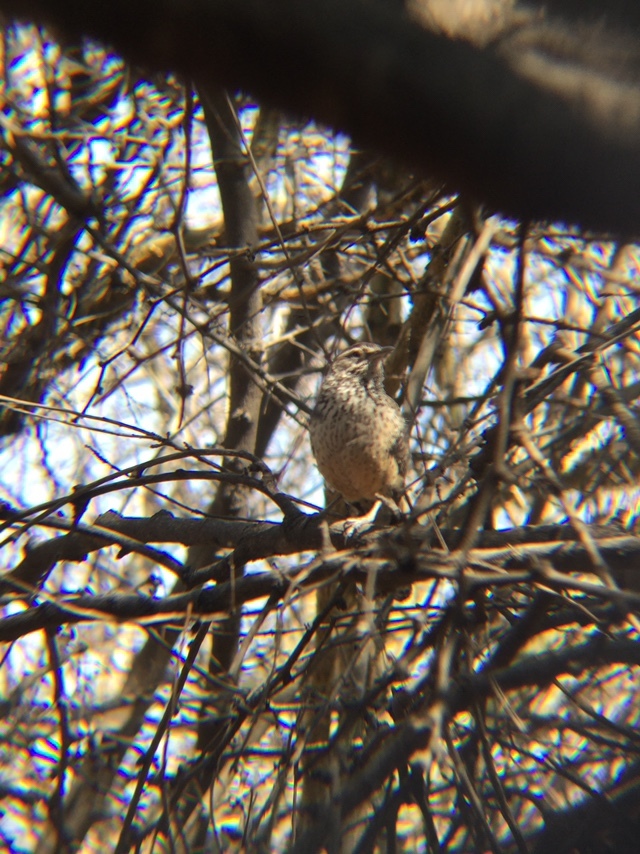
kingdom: Animalia
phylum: Chordata
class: Aves
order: Passeriformes
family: Troglodytidae
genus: Campylorhynchus
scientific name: Campylorhynchus brunneicapillus
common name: Cactus wren
